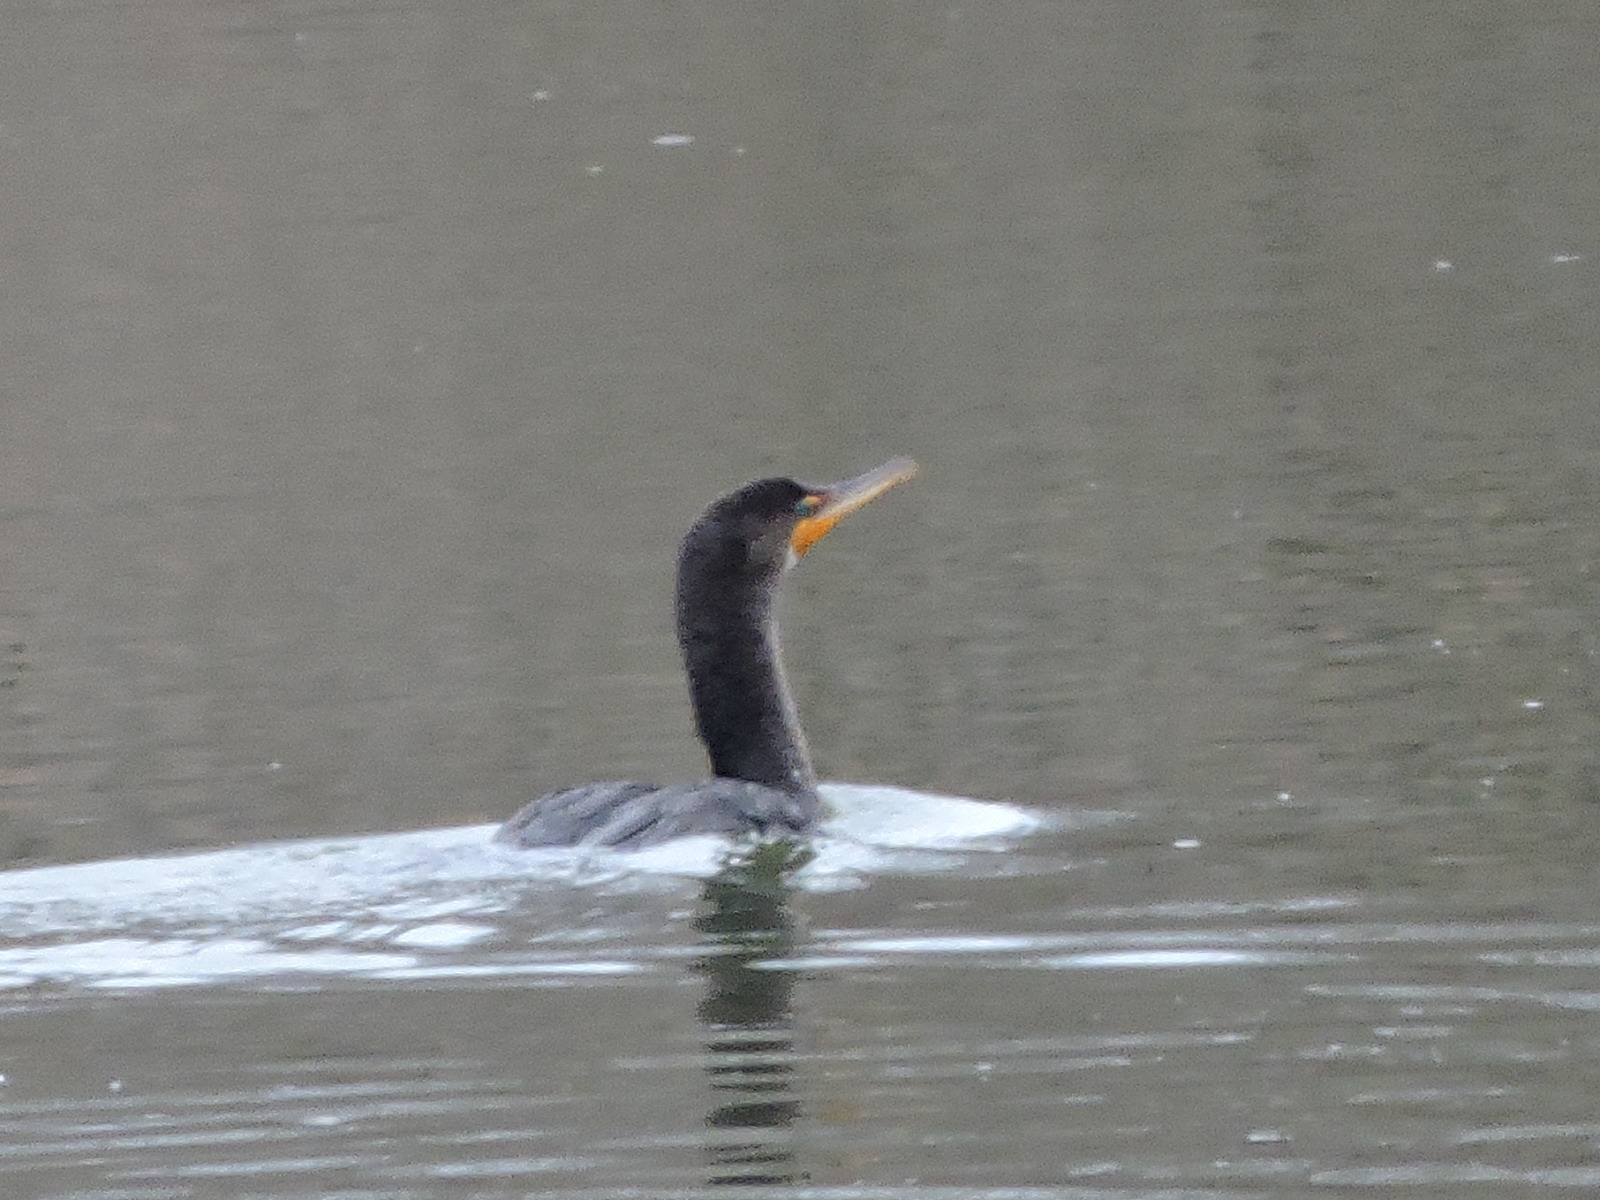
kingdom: Animalia
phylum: Chordata
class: Aves
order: Suliformes
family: Phalacrocoracidae
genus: Phalacrocorax
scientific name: Phalacrocorax auritus
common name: Double-crested cormorant
